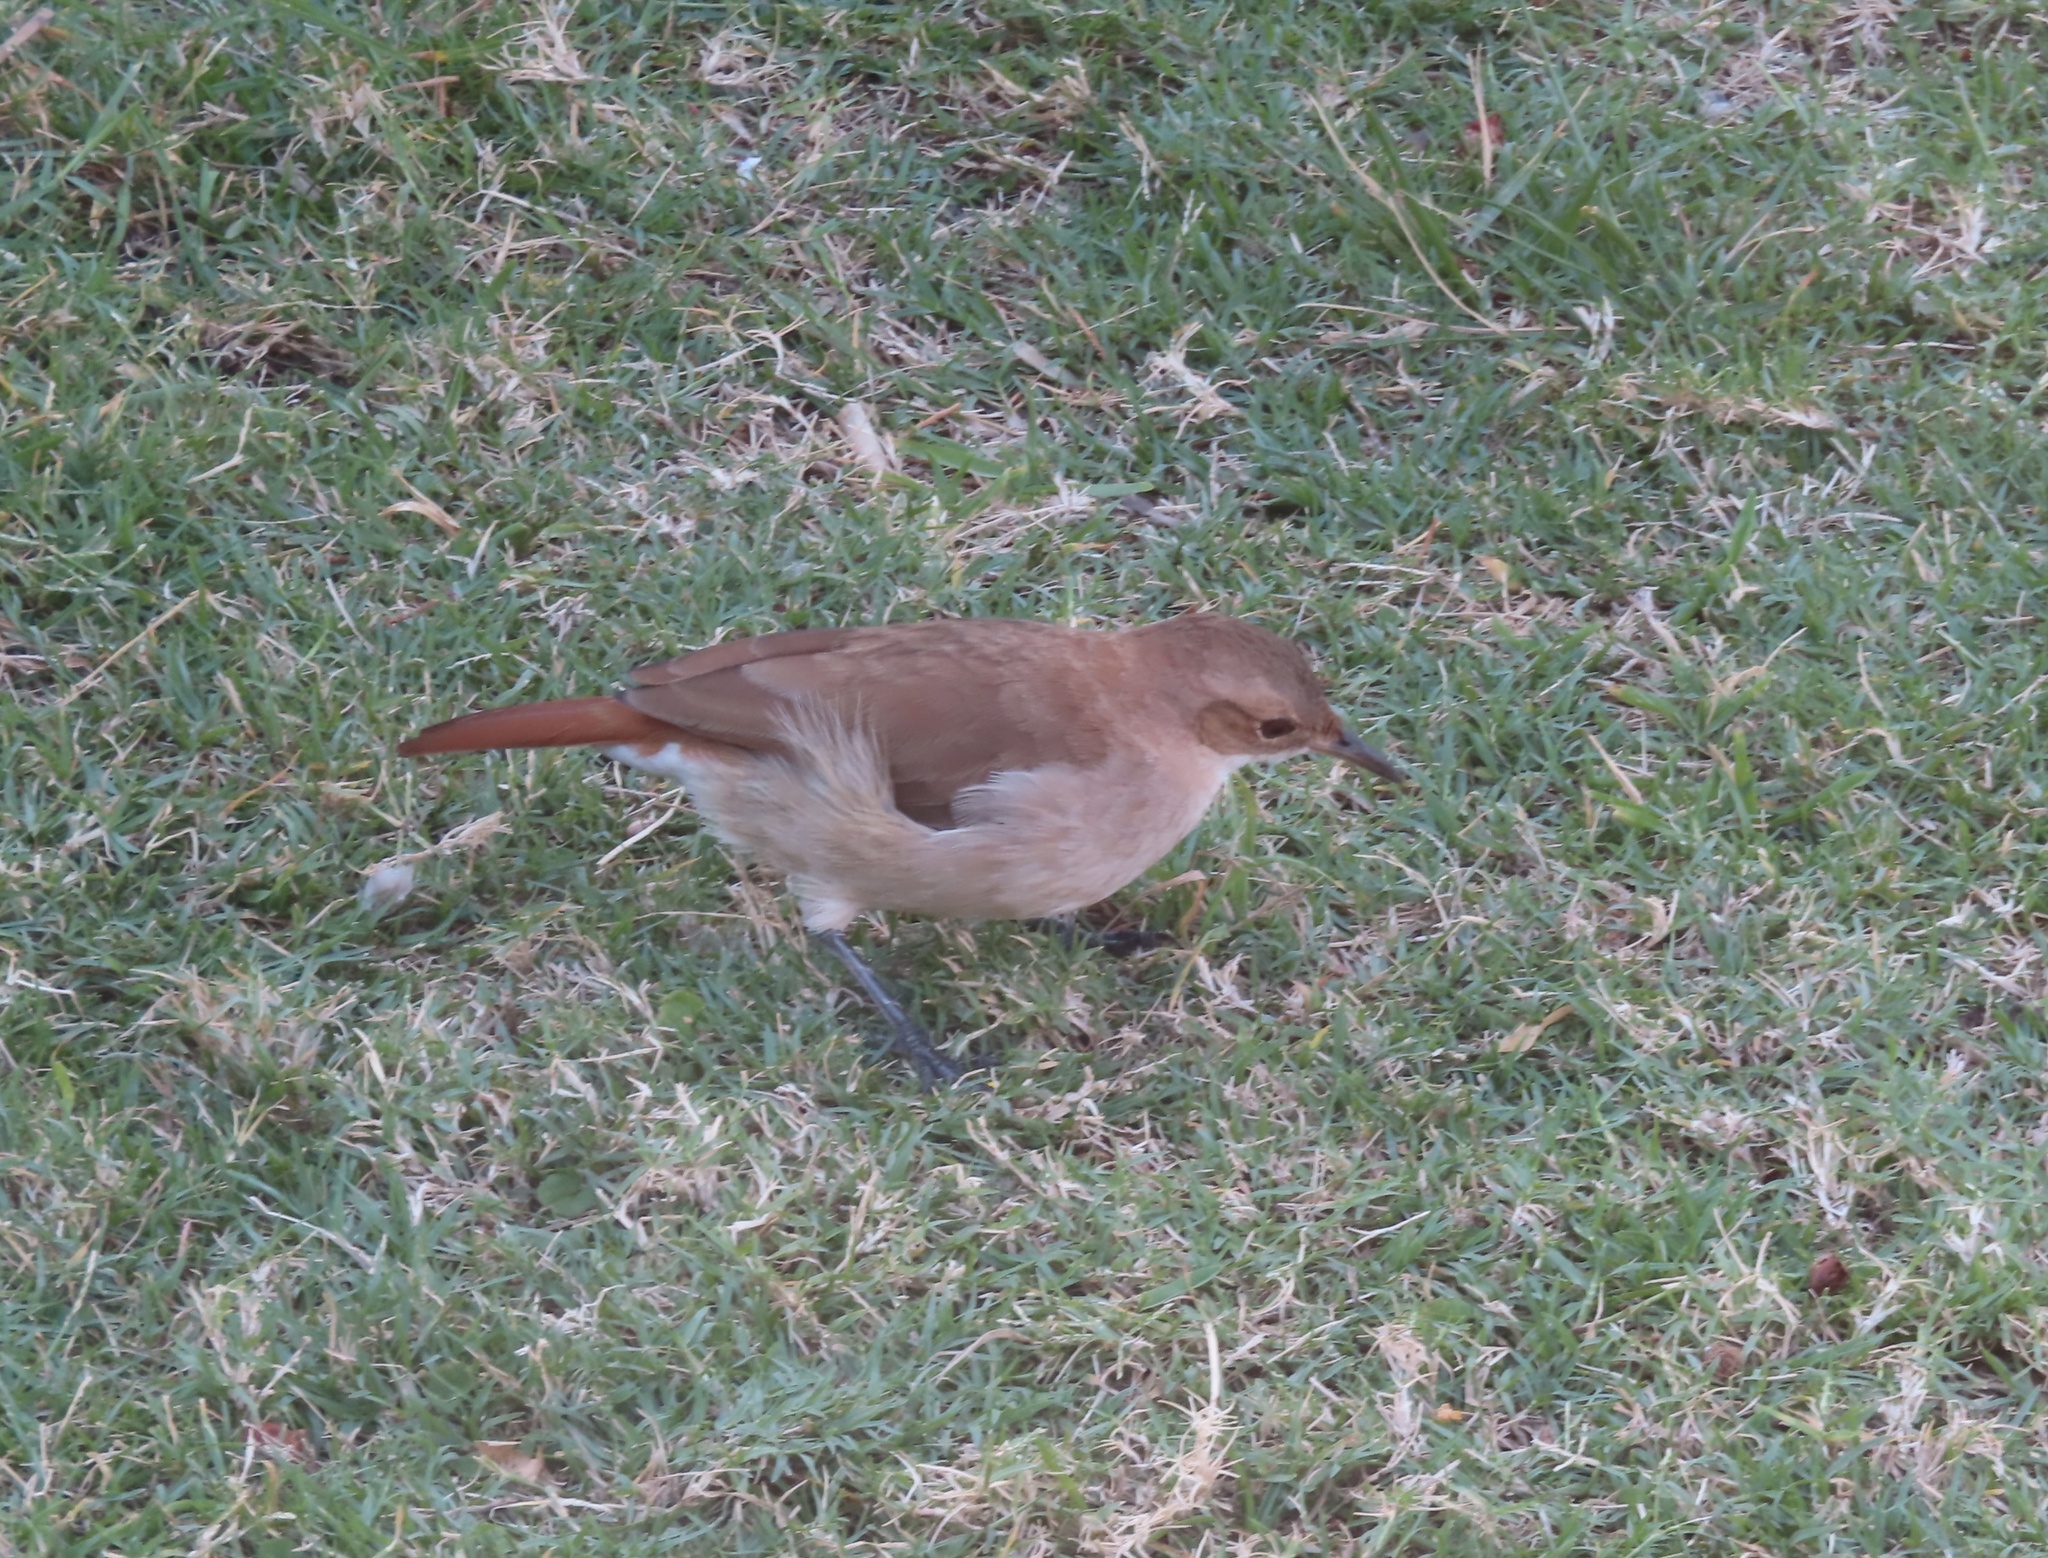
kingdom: Animalia
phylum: Chordata
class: Aves
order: Passeriformes
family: Furnariidae
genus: Furnarius
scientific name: Furnarius rufus
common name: Rufous hornero
